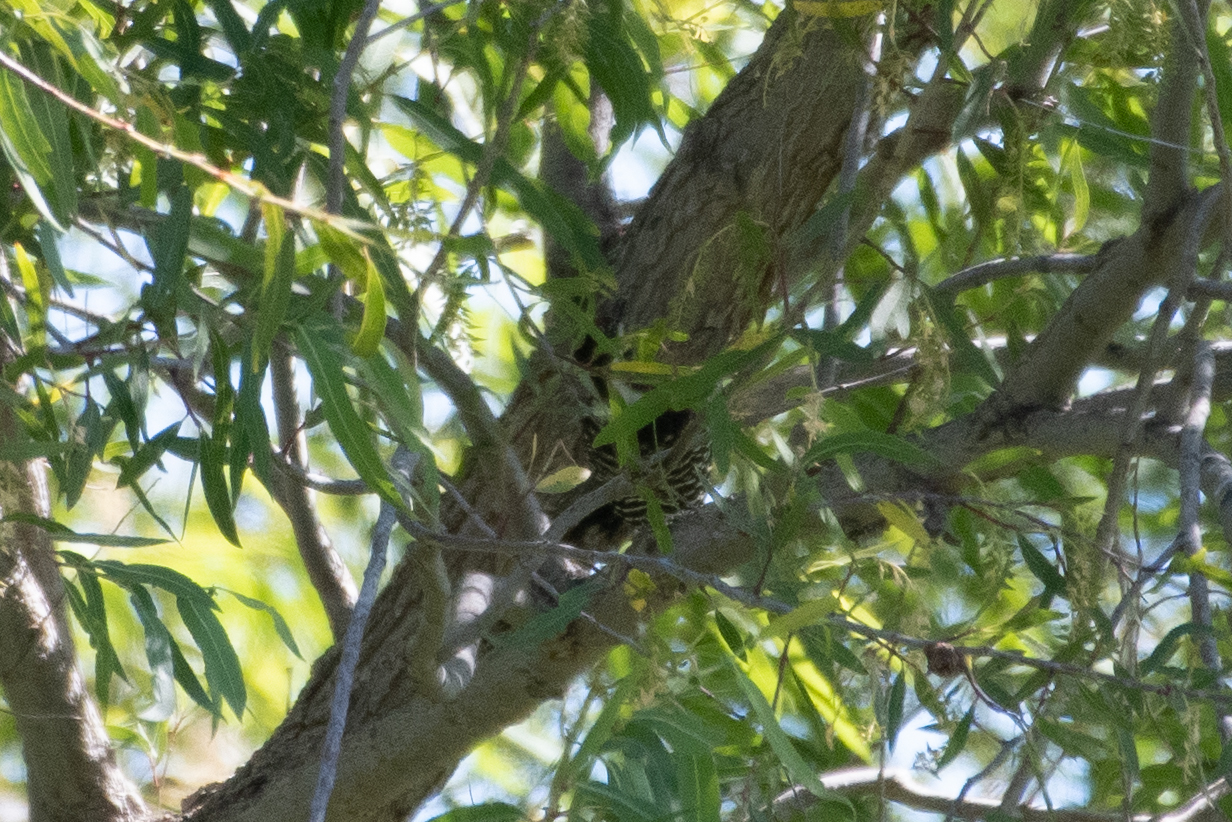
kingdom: Animalia
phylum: Chordata
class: Aves
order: Piciformes
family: Picidae
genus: Dryobates
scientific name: Dryobates nuttallii
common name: Nuttall's woodpecker
